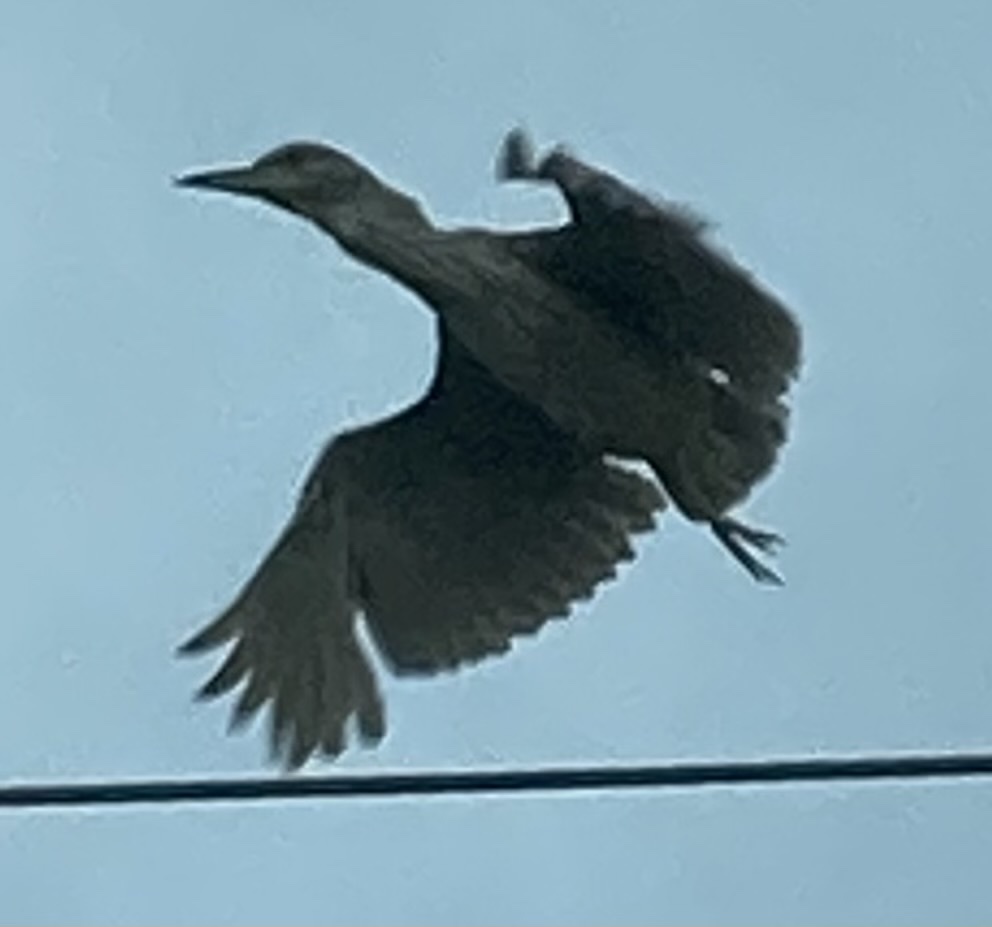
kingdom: Animalia
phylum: Chordata
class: Aves
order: Pelecaniformes
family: Ardeidae
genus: Nycticorax
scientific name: Nycticorax nycticorax
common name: Black-crowned night heron
